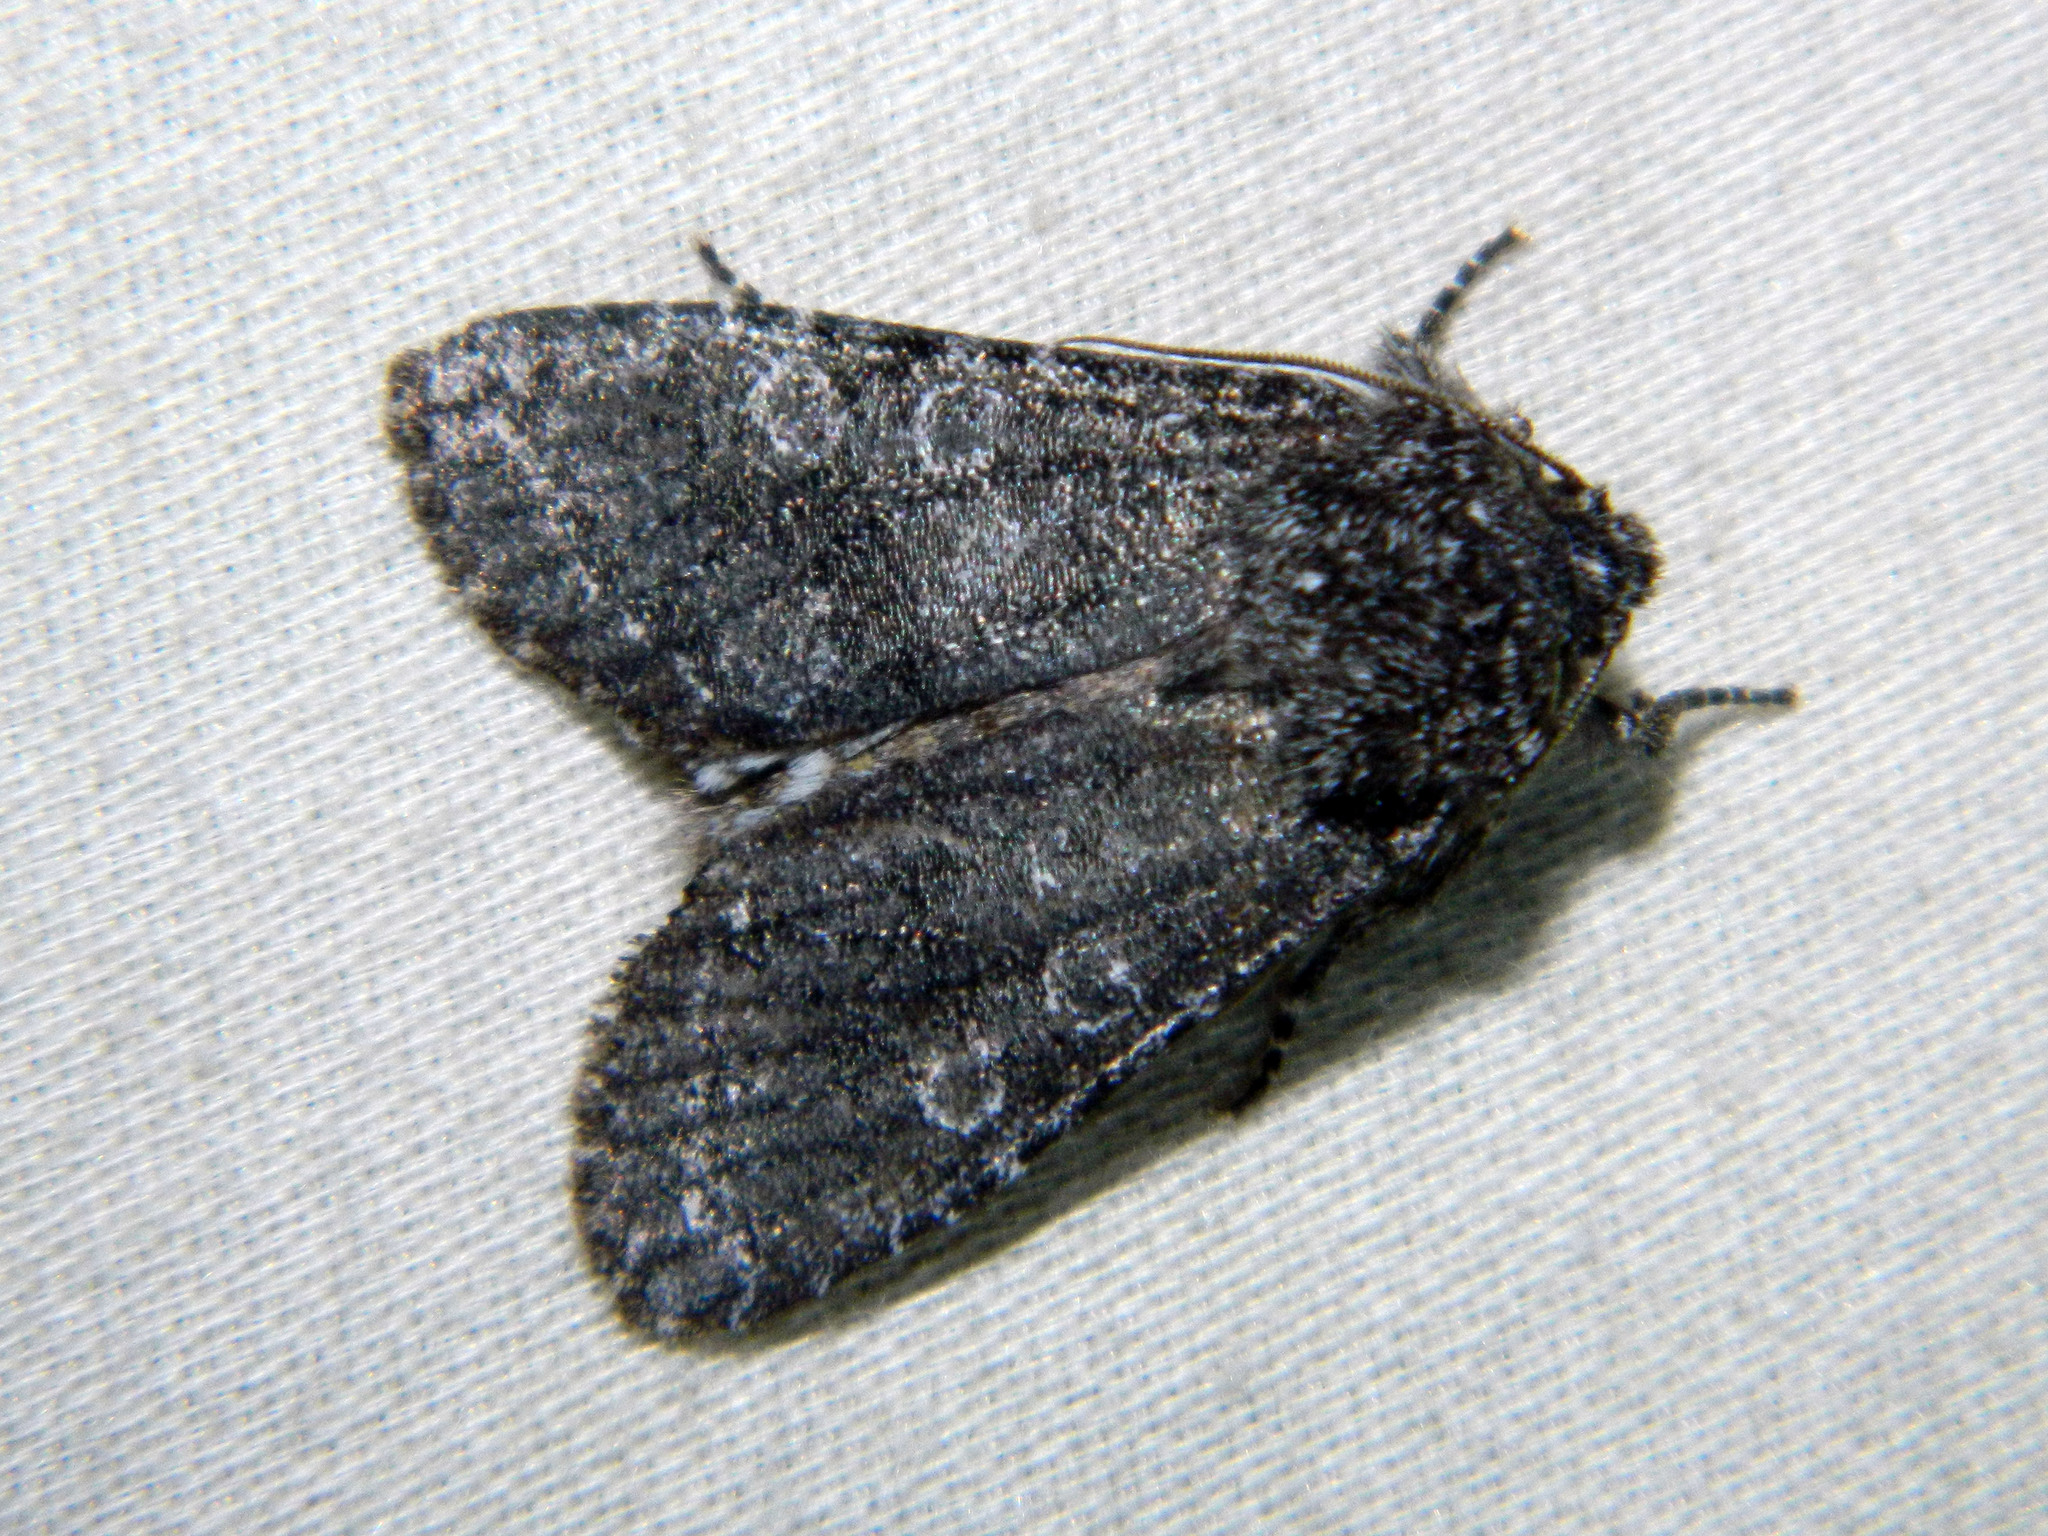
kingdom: Animalia
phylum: Arthropoda
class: Insecta
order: Lepidoptera
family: Noctuidae
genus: Egira
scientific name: Egira dolosa
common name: Lined black aspen cat.
